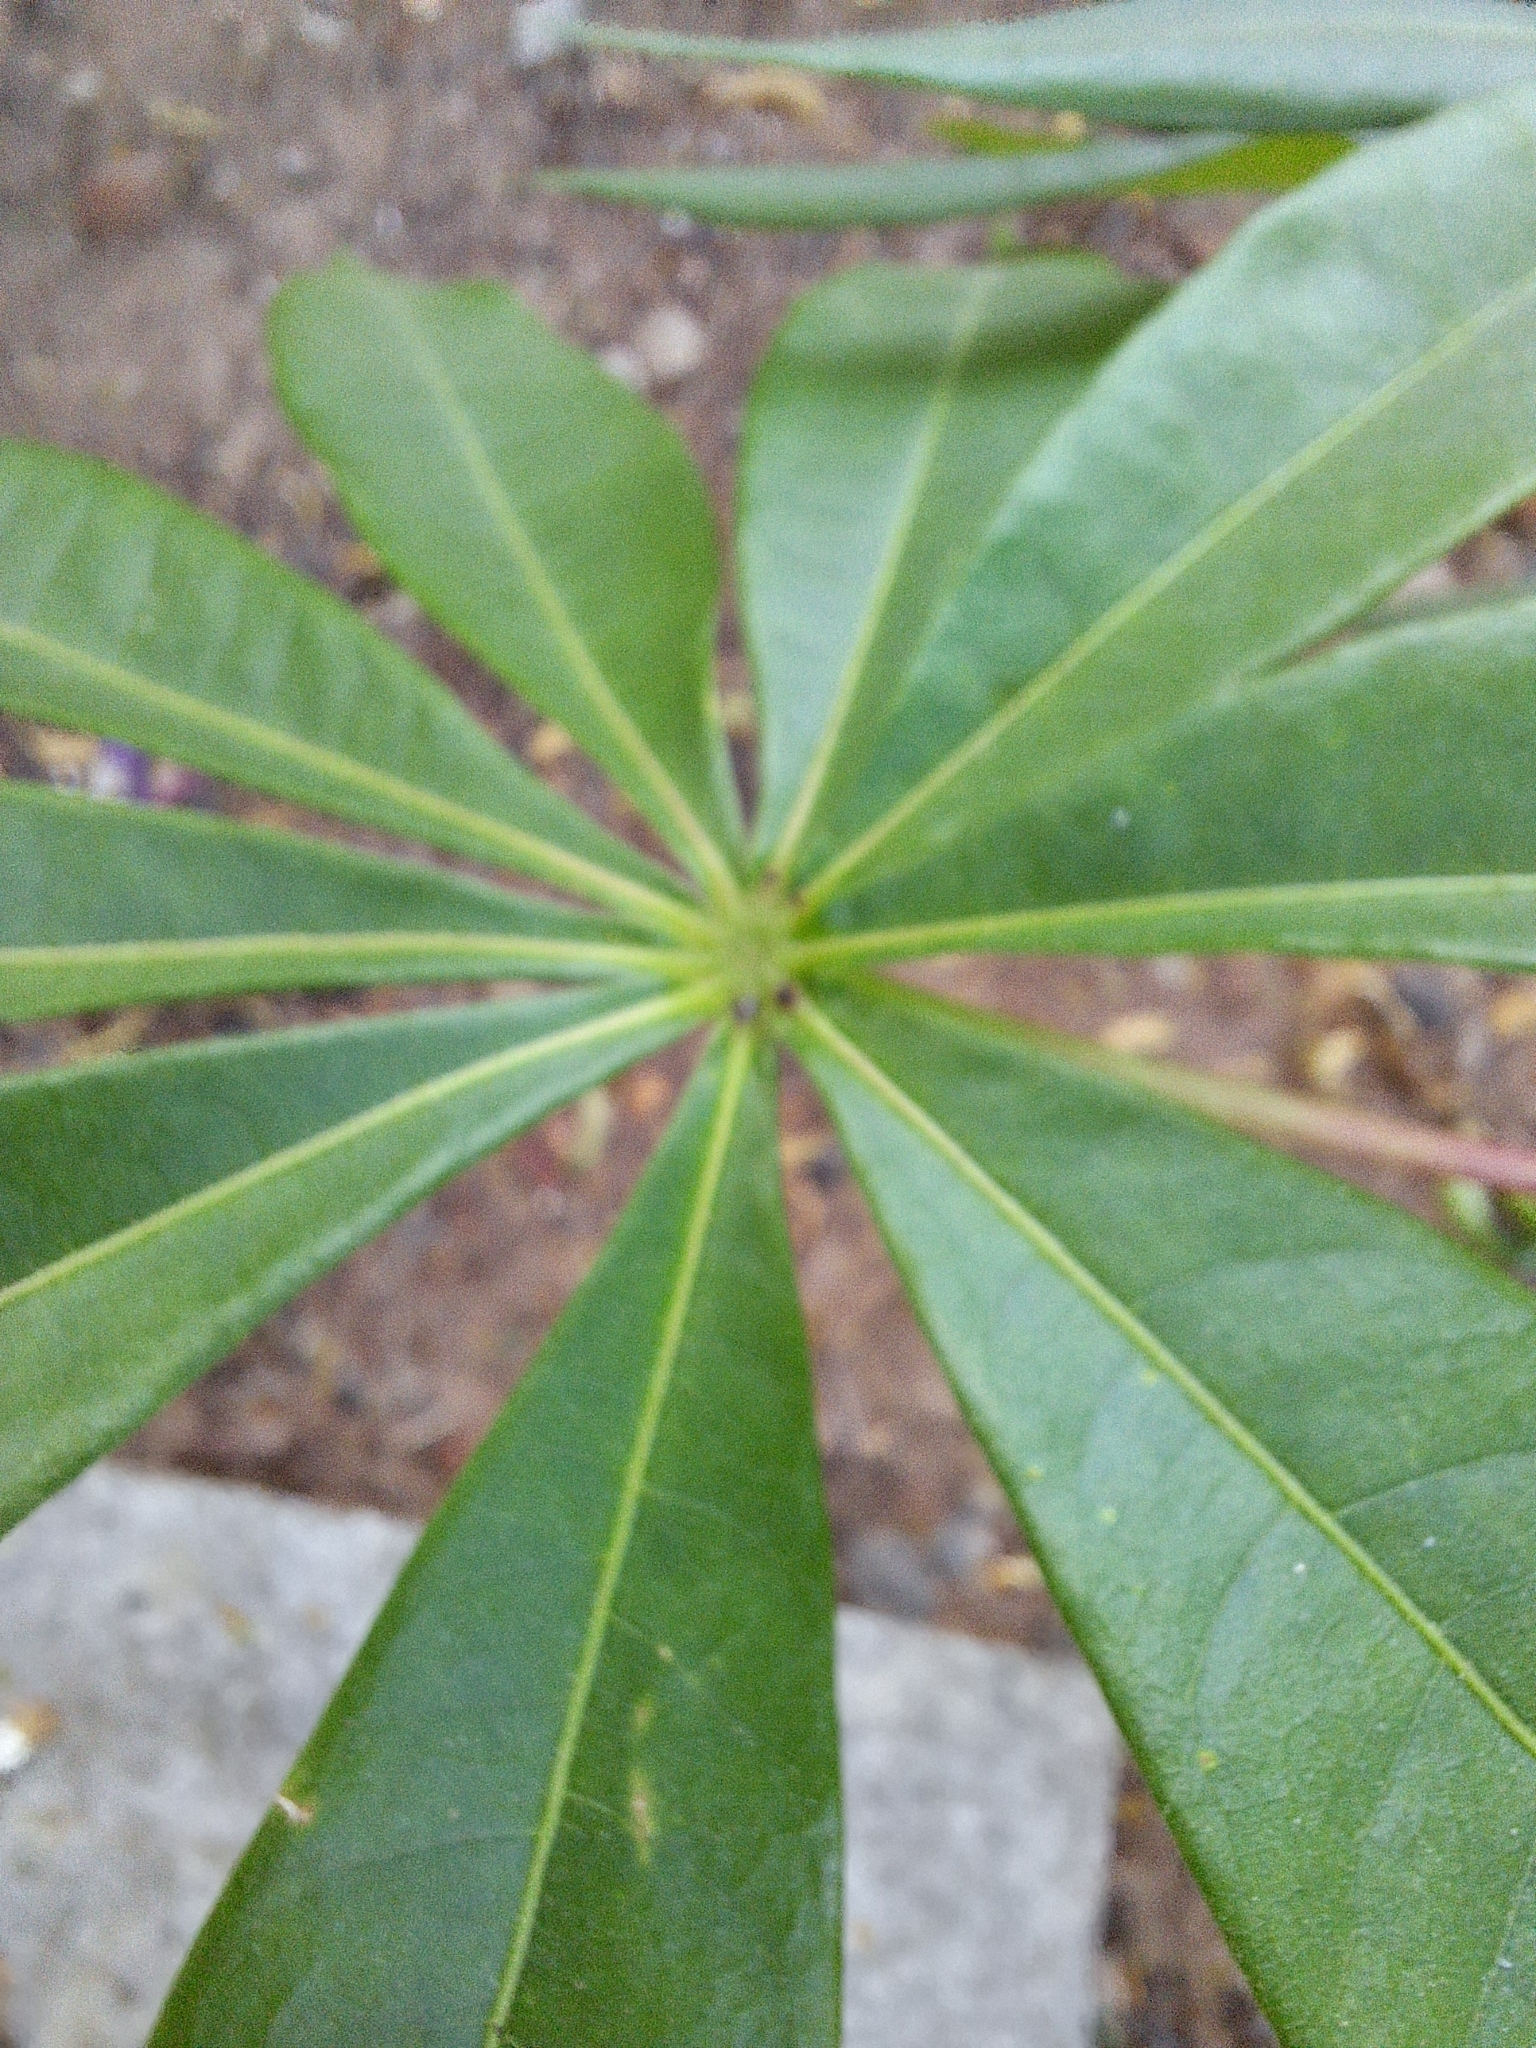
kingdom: Plantae
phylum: Tracheophyta
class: Magnoliopsida
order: Malpighiales
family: Euphorbiaceae
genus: Manihot
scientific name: Manihot esculenta
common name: Cassava
